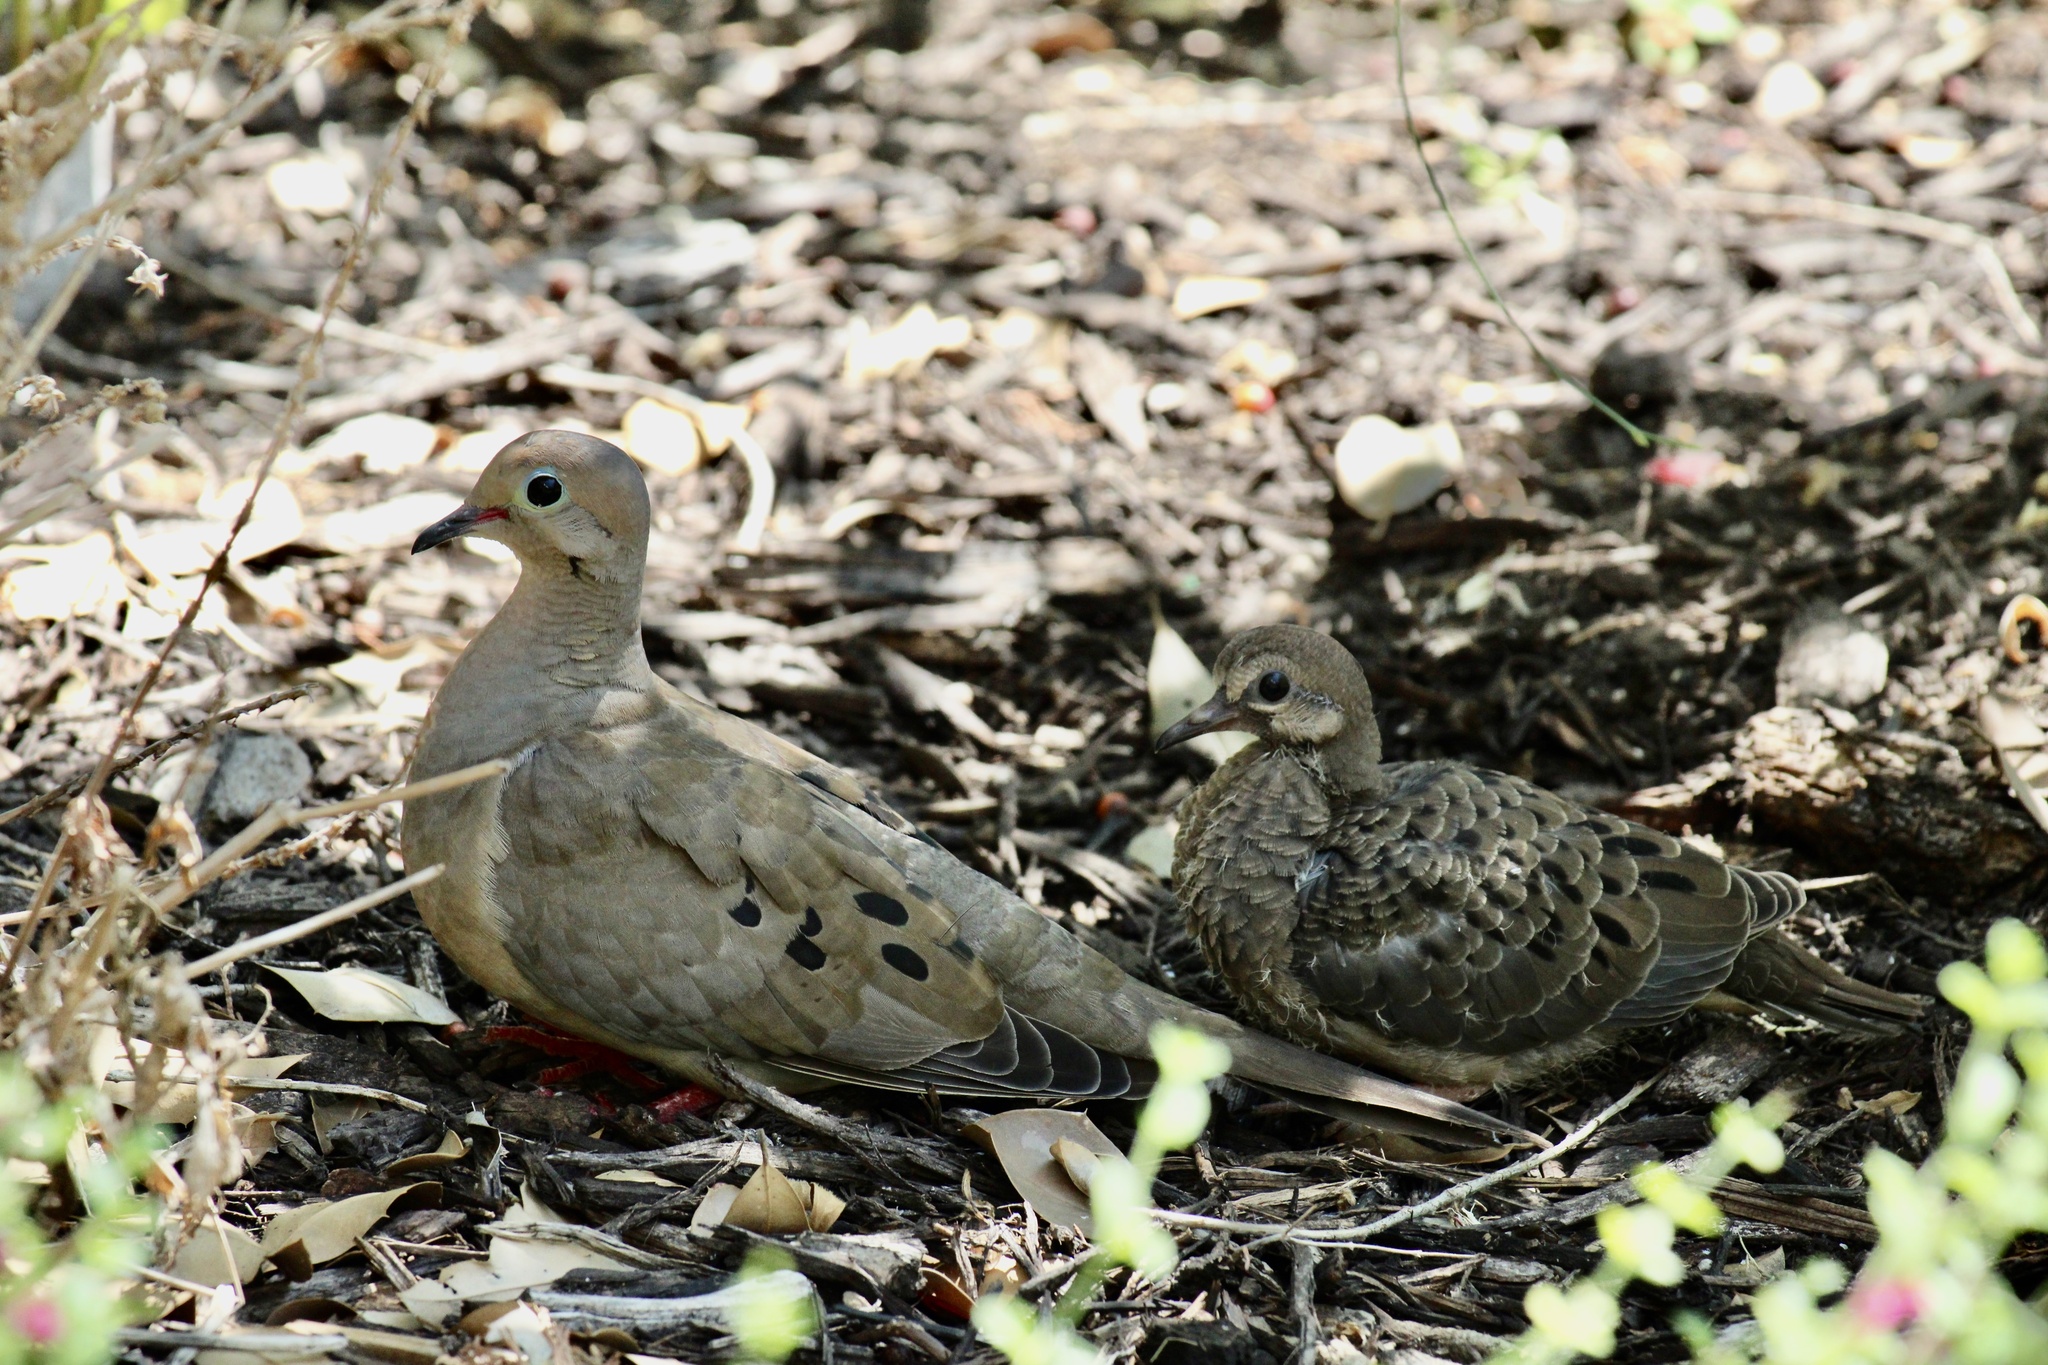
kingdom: Animalia
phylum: Chordata
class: Aves
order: Columbiformes
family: Columbidae
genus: Zenaida
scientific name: Zenaida macroura
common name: Mourning dove
